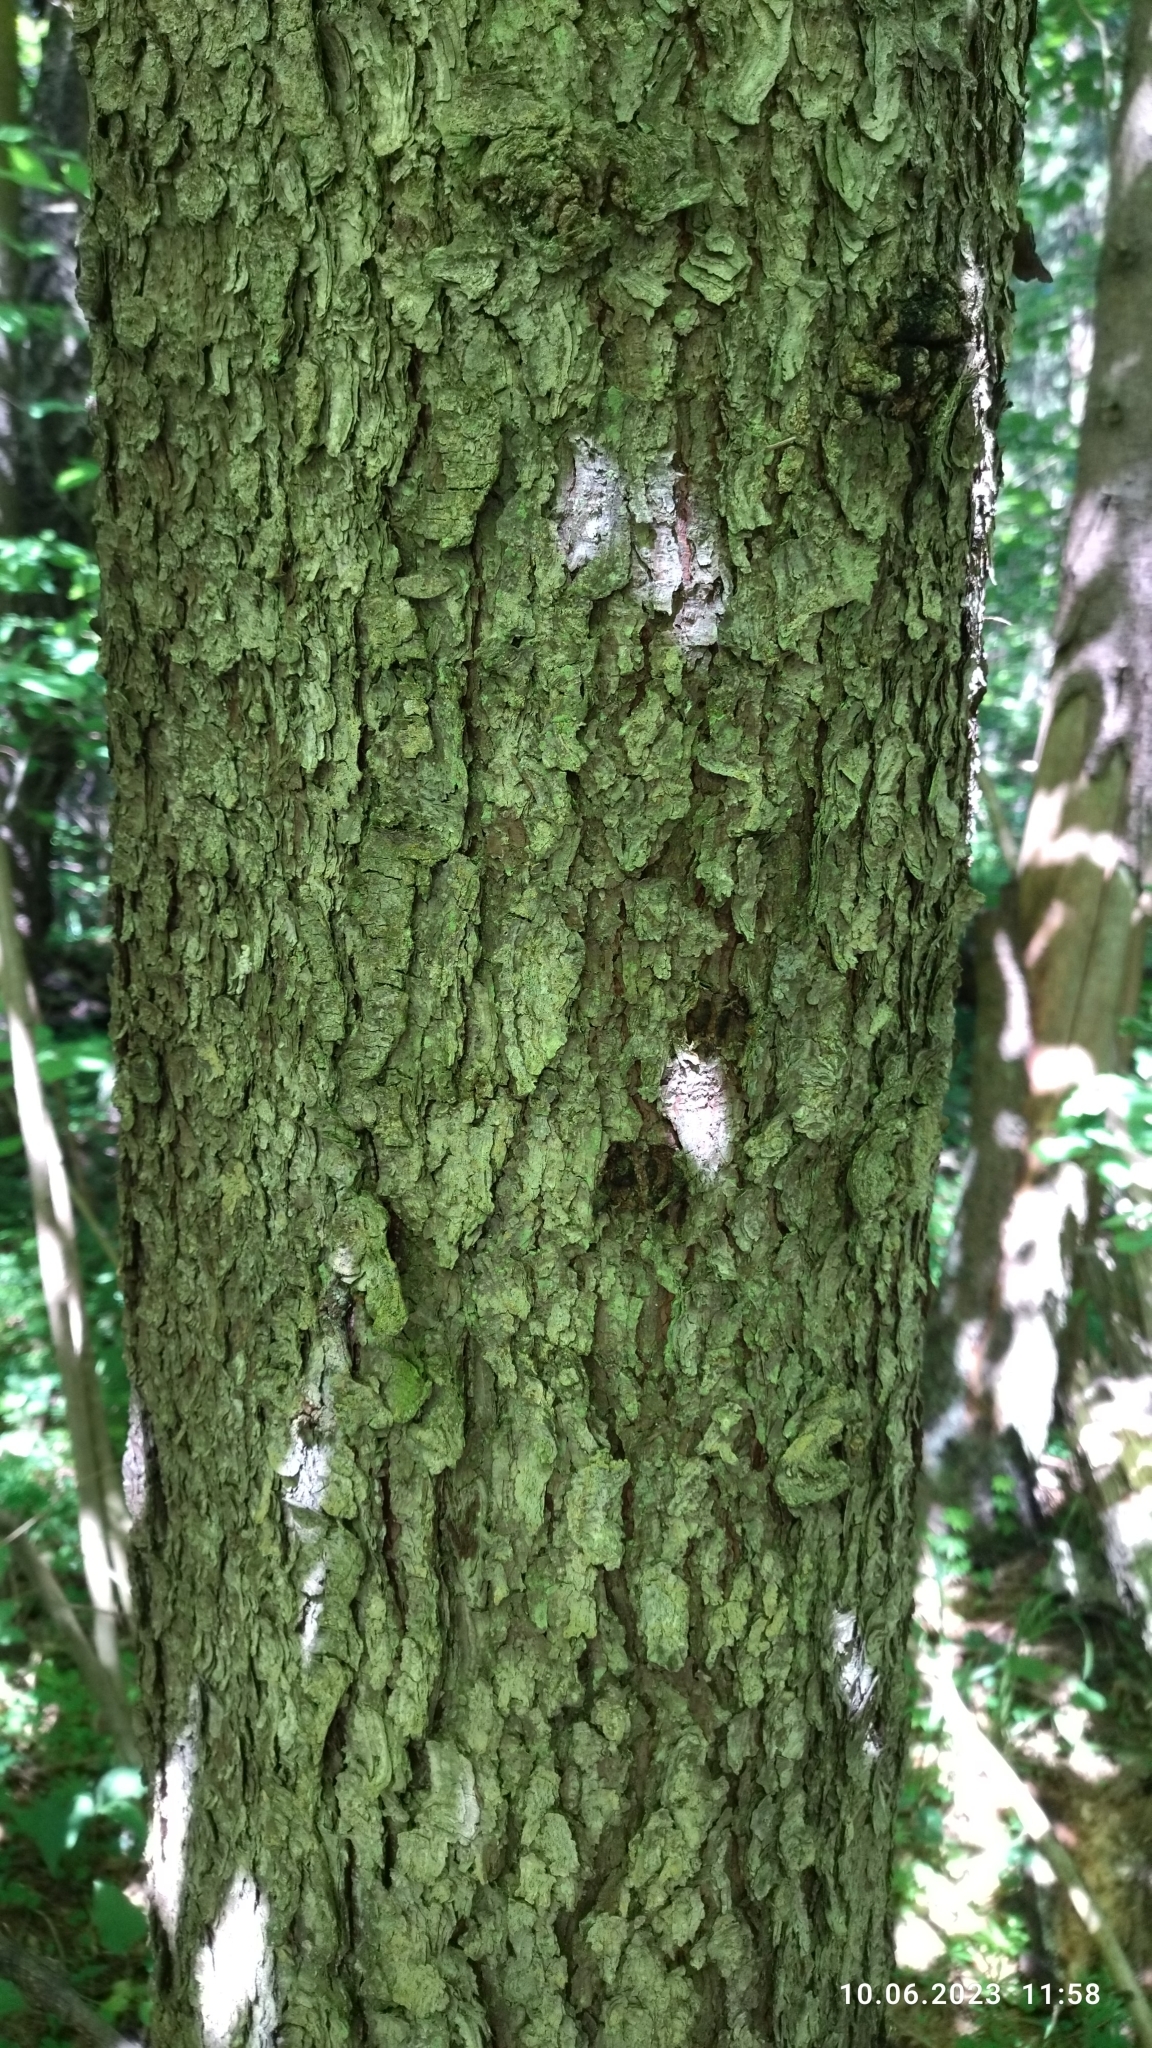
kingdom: Plantae
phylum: Tracheophyta
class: Pinopsida
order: Pinales
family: Pinaceae
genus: Picea
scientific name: Picea abies
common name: Norway spruce
